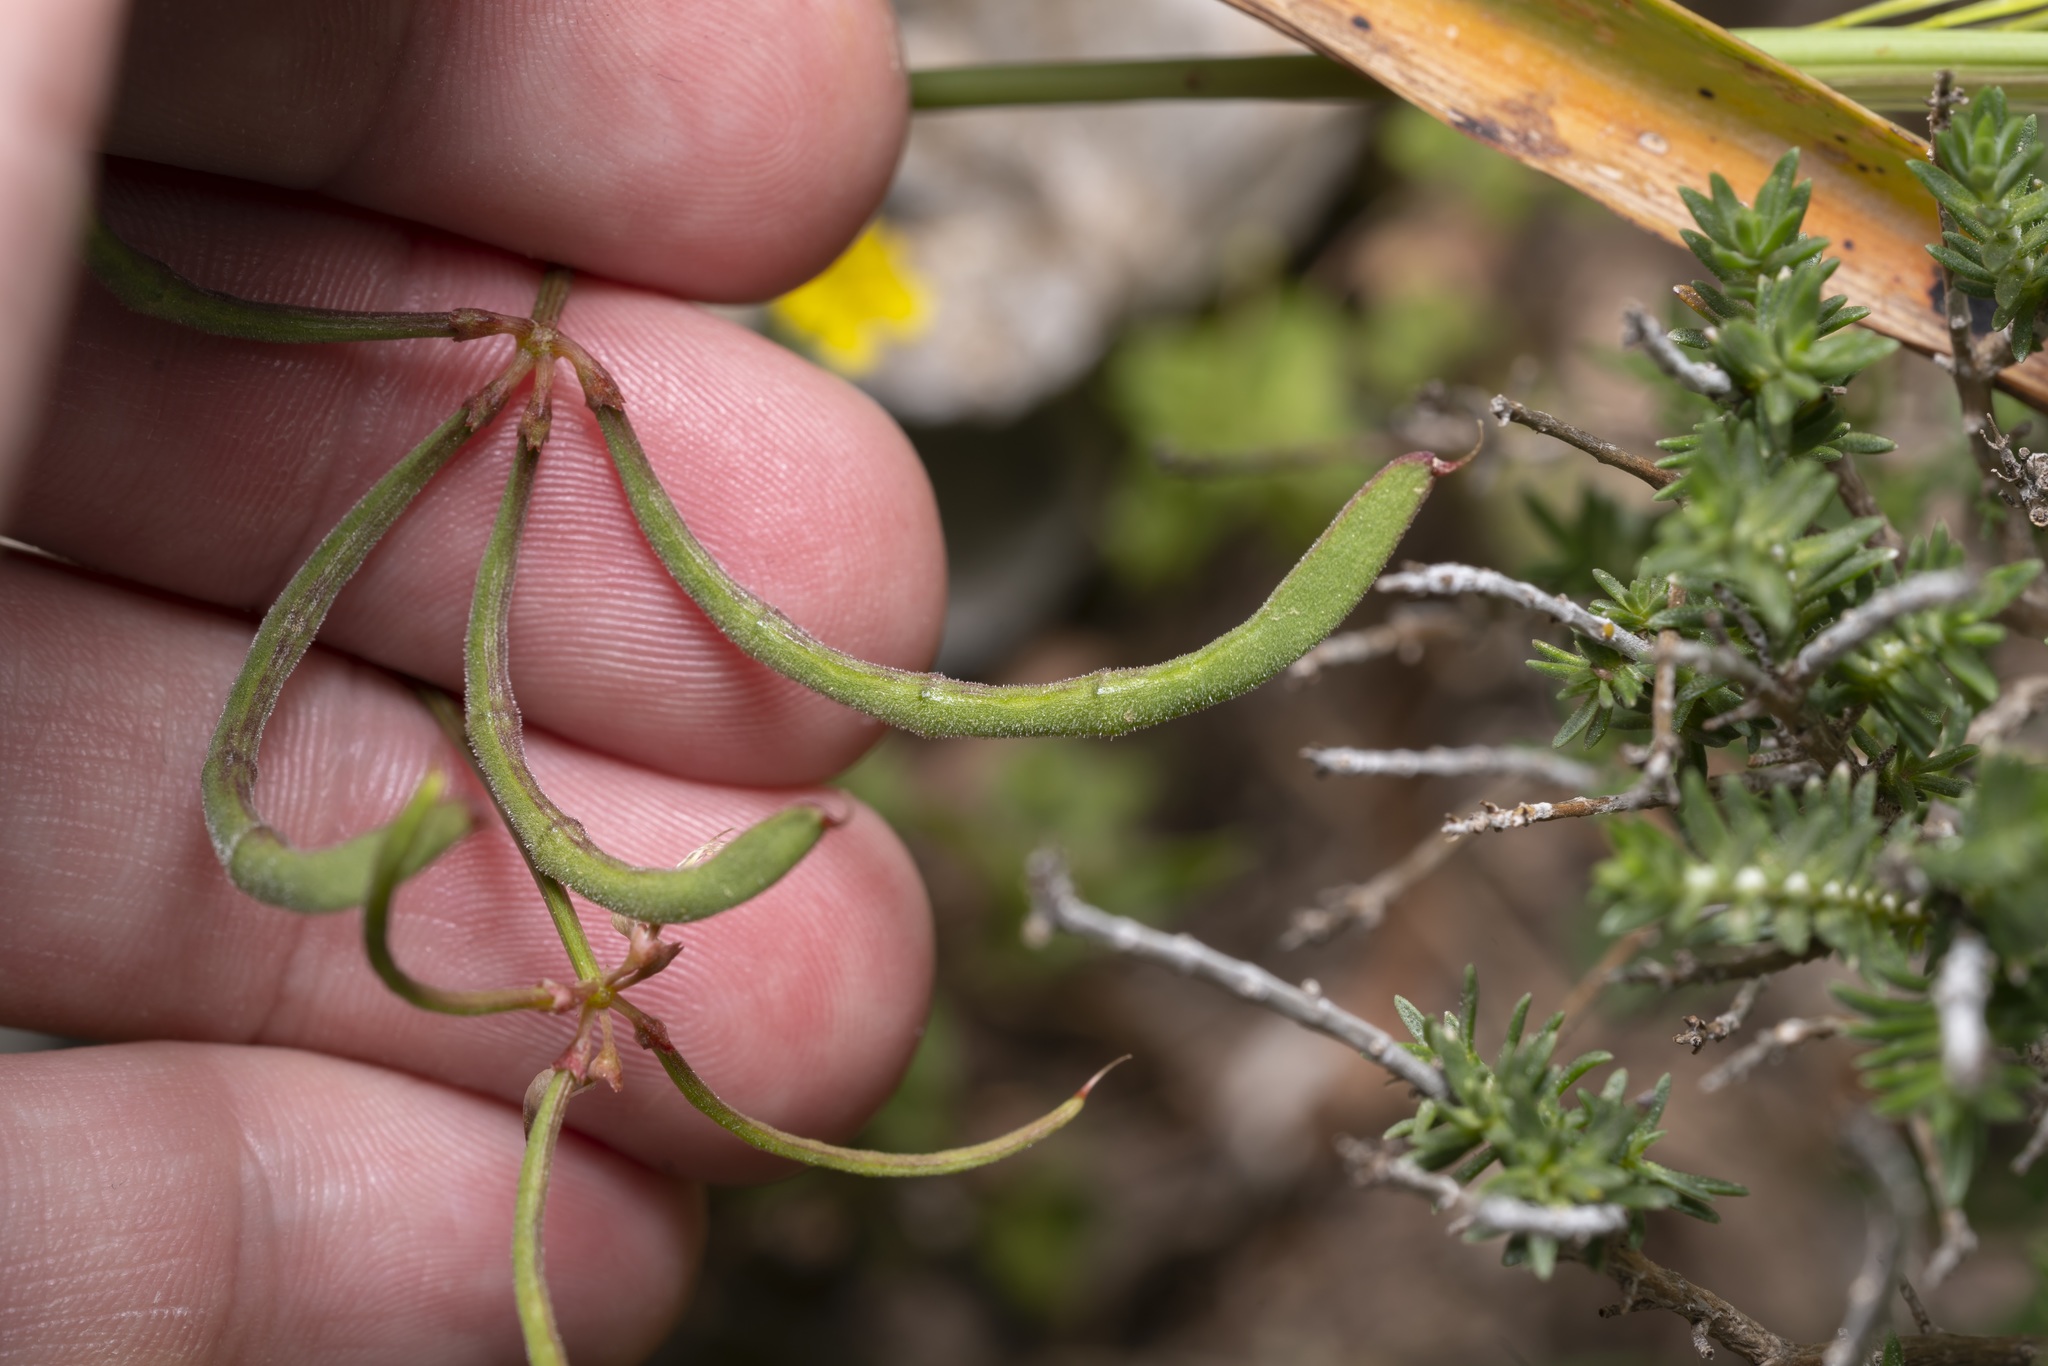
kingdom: Plantae
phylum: Tracheophyta
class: Magnoliopsida
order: Fabales
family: Fabaceae
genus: Coronilla
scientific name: Coronilla cretica
